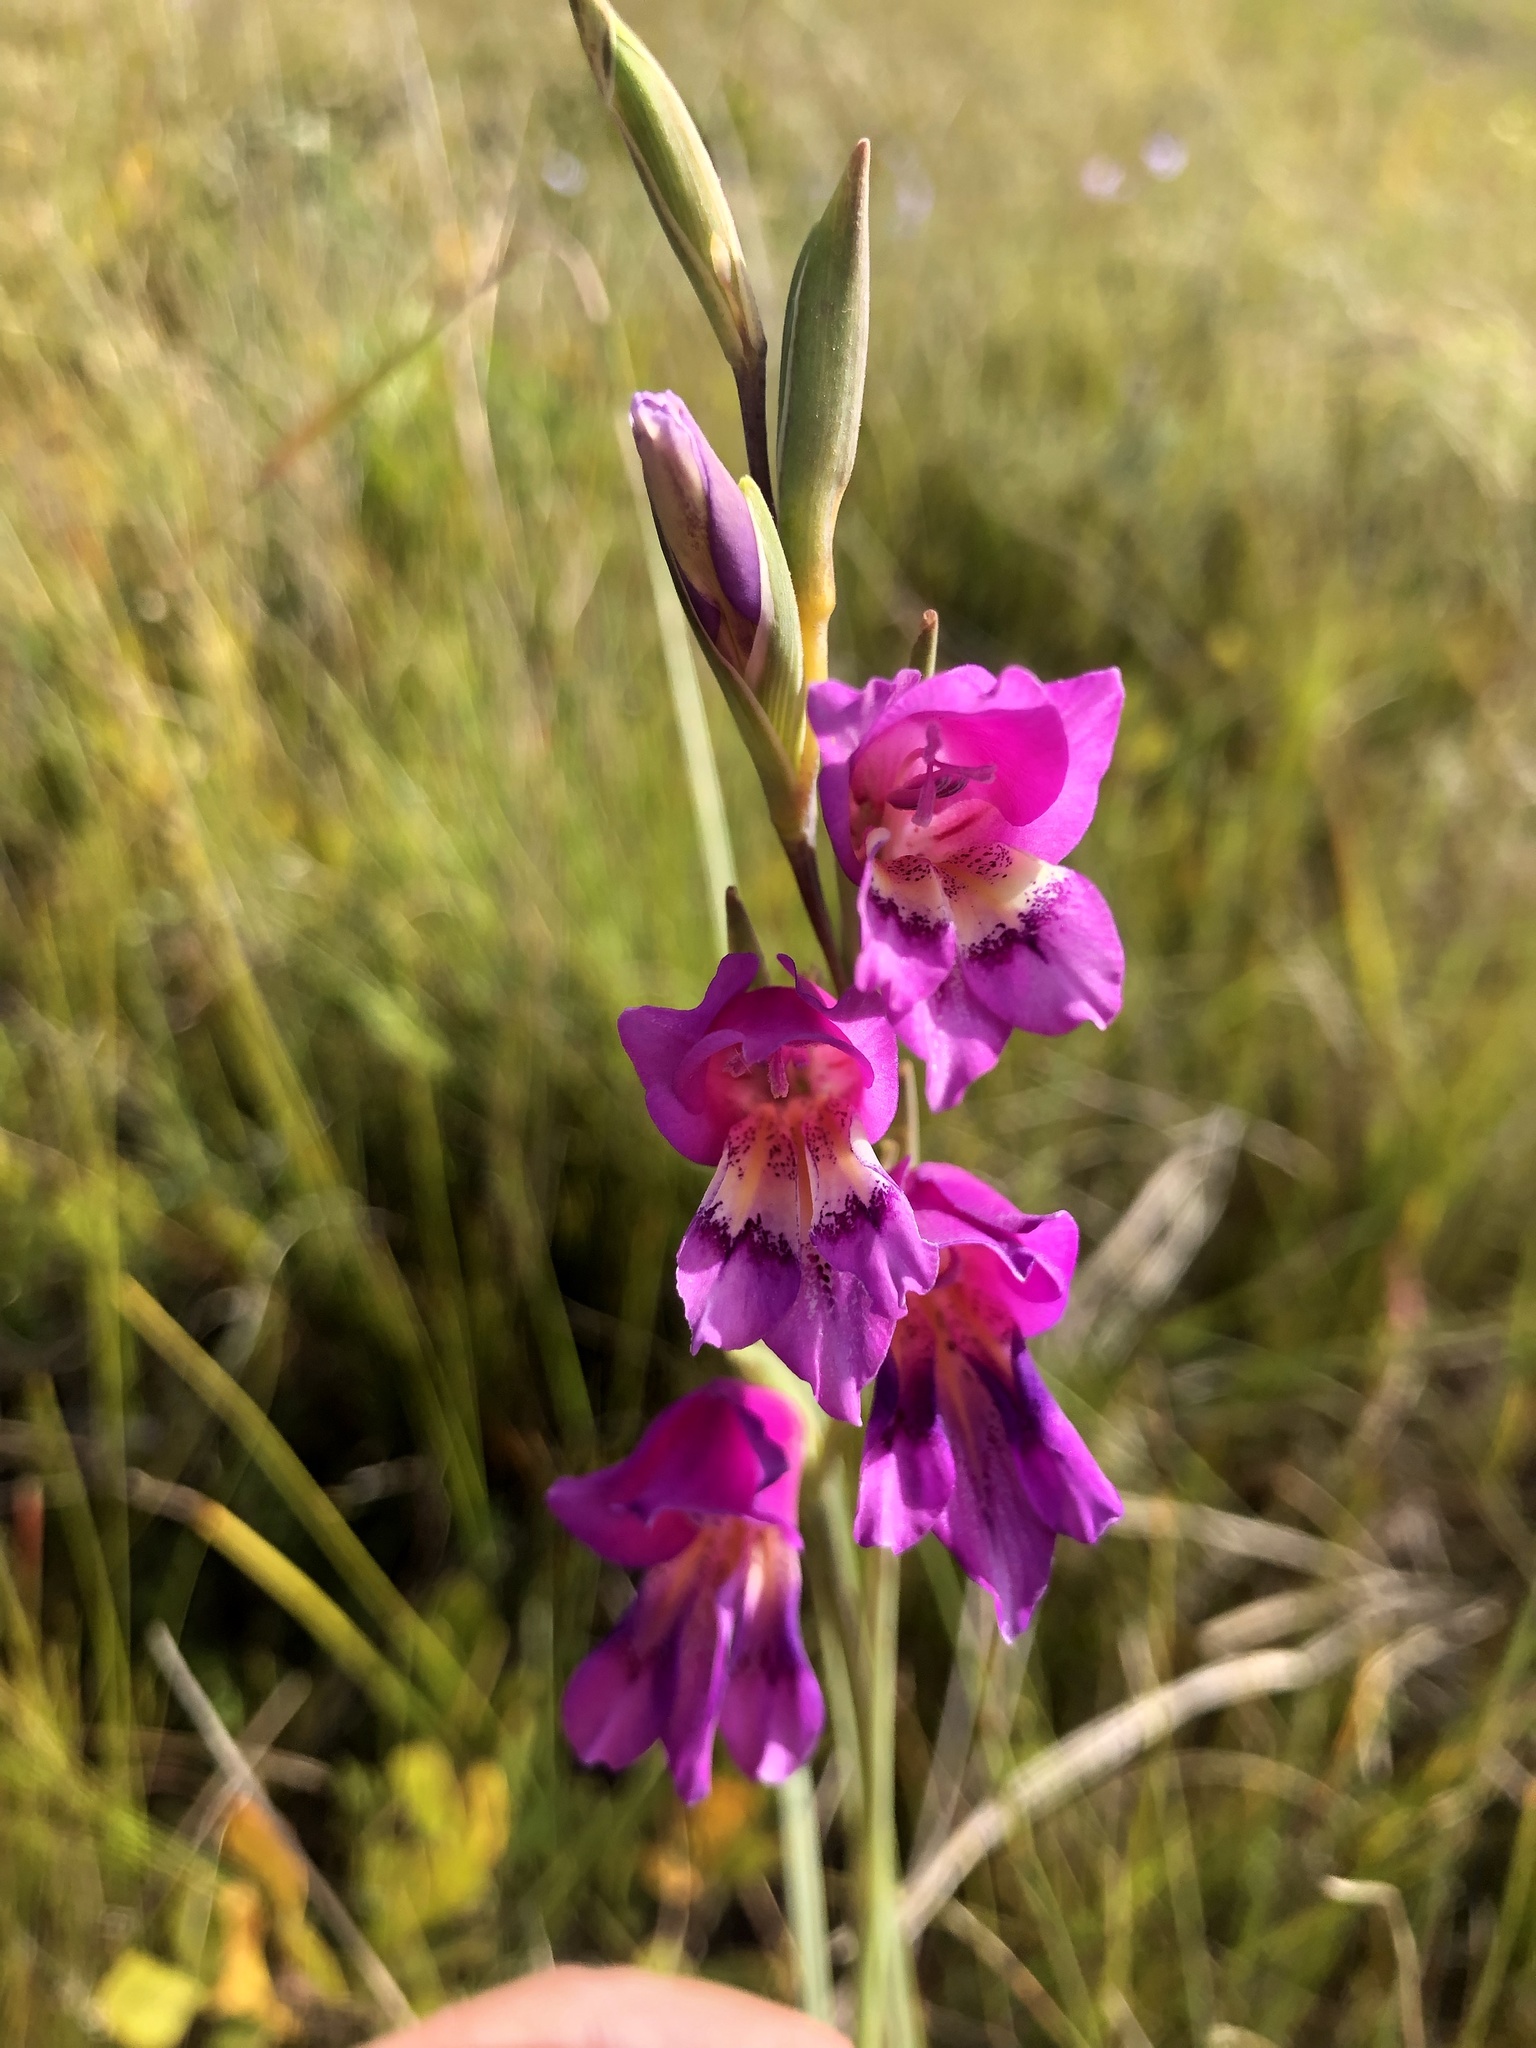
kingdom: Plantae
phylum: Tracheophyta
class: Liliopsida
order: Asparagales
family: Iridaceae
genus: Gladiolus
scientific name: Gladiolus carinatus
